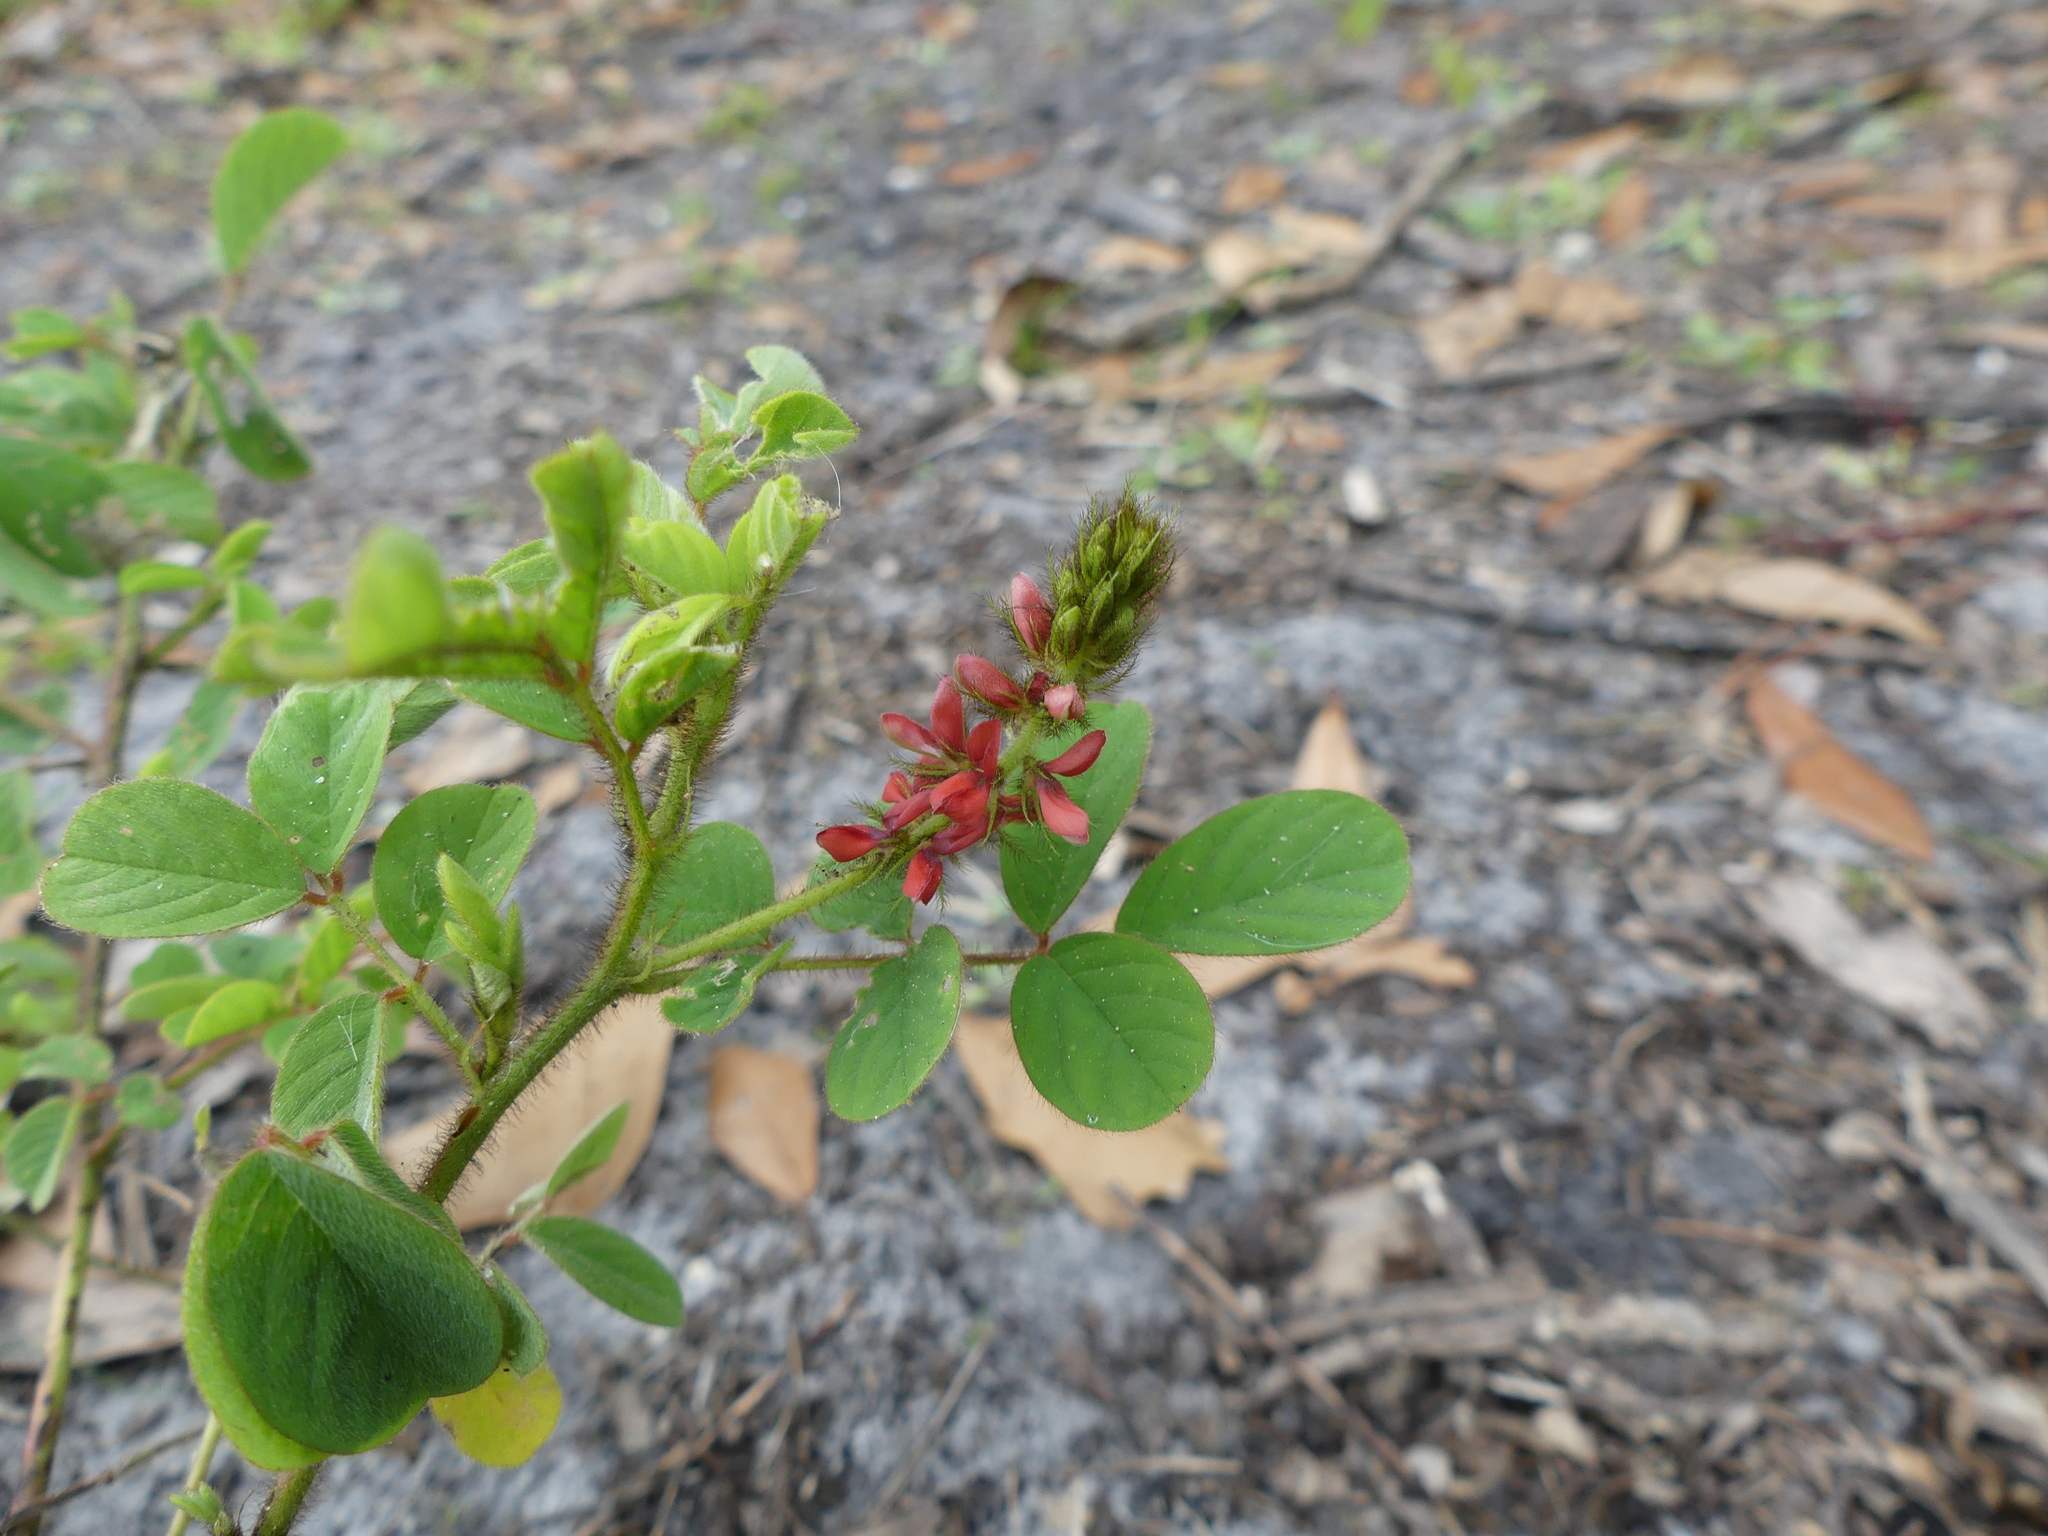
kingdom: Plantae
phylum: Tracheophyta
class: Magnoliopsida
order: Fabales
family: Fabaceae
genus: Indigofera
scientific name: Indigofera hirsuta
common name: Hairy indigo
